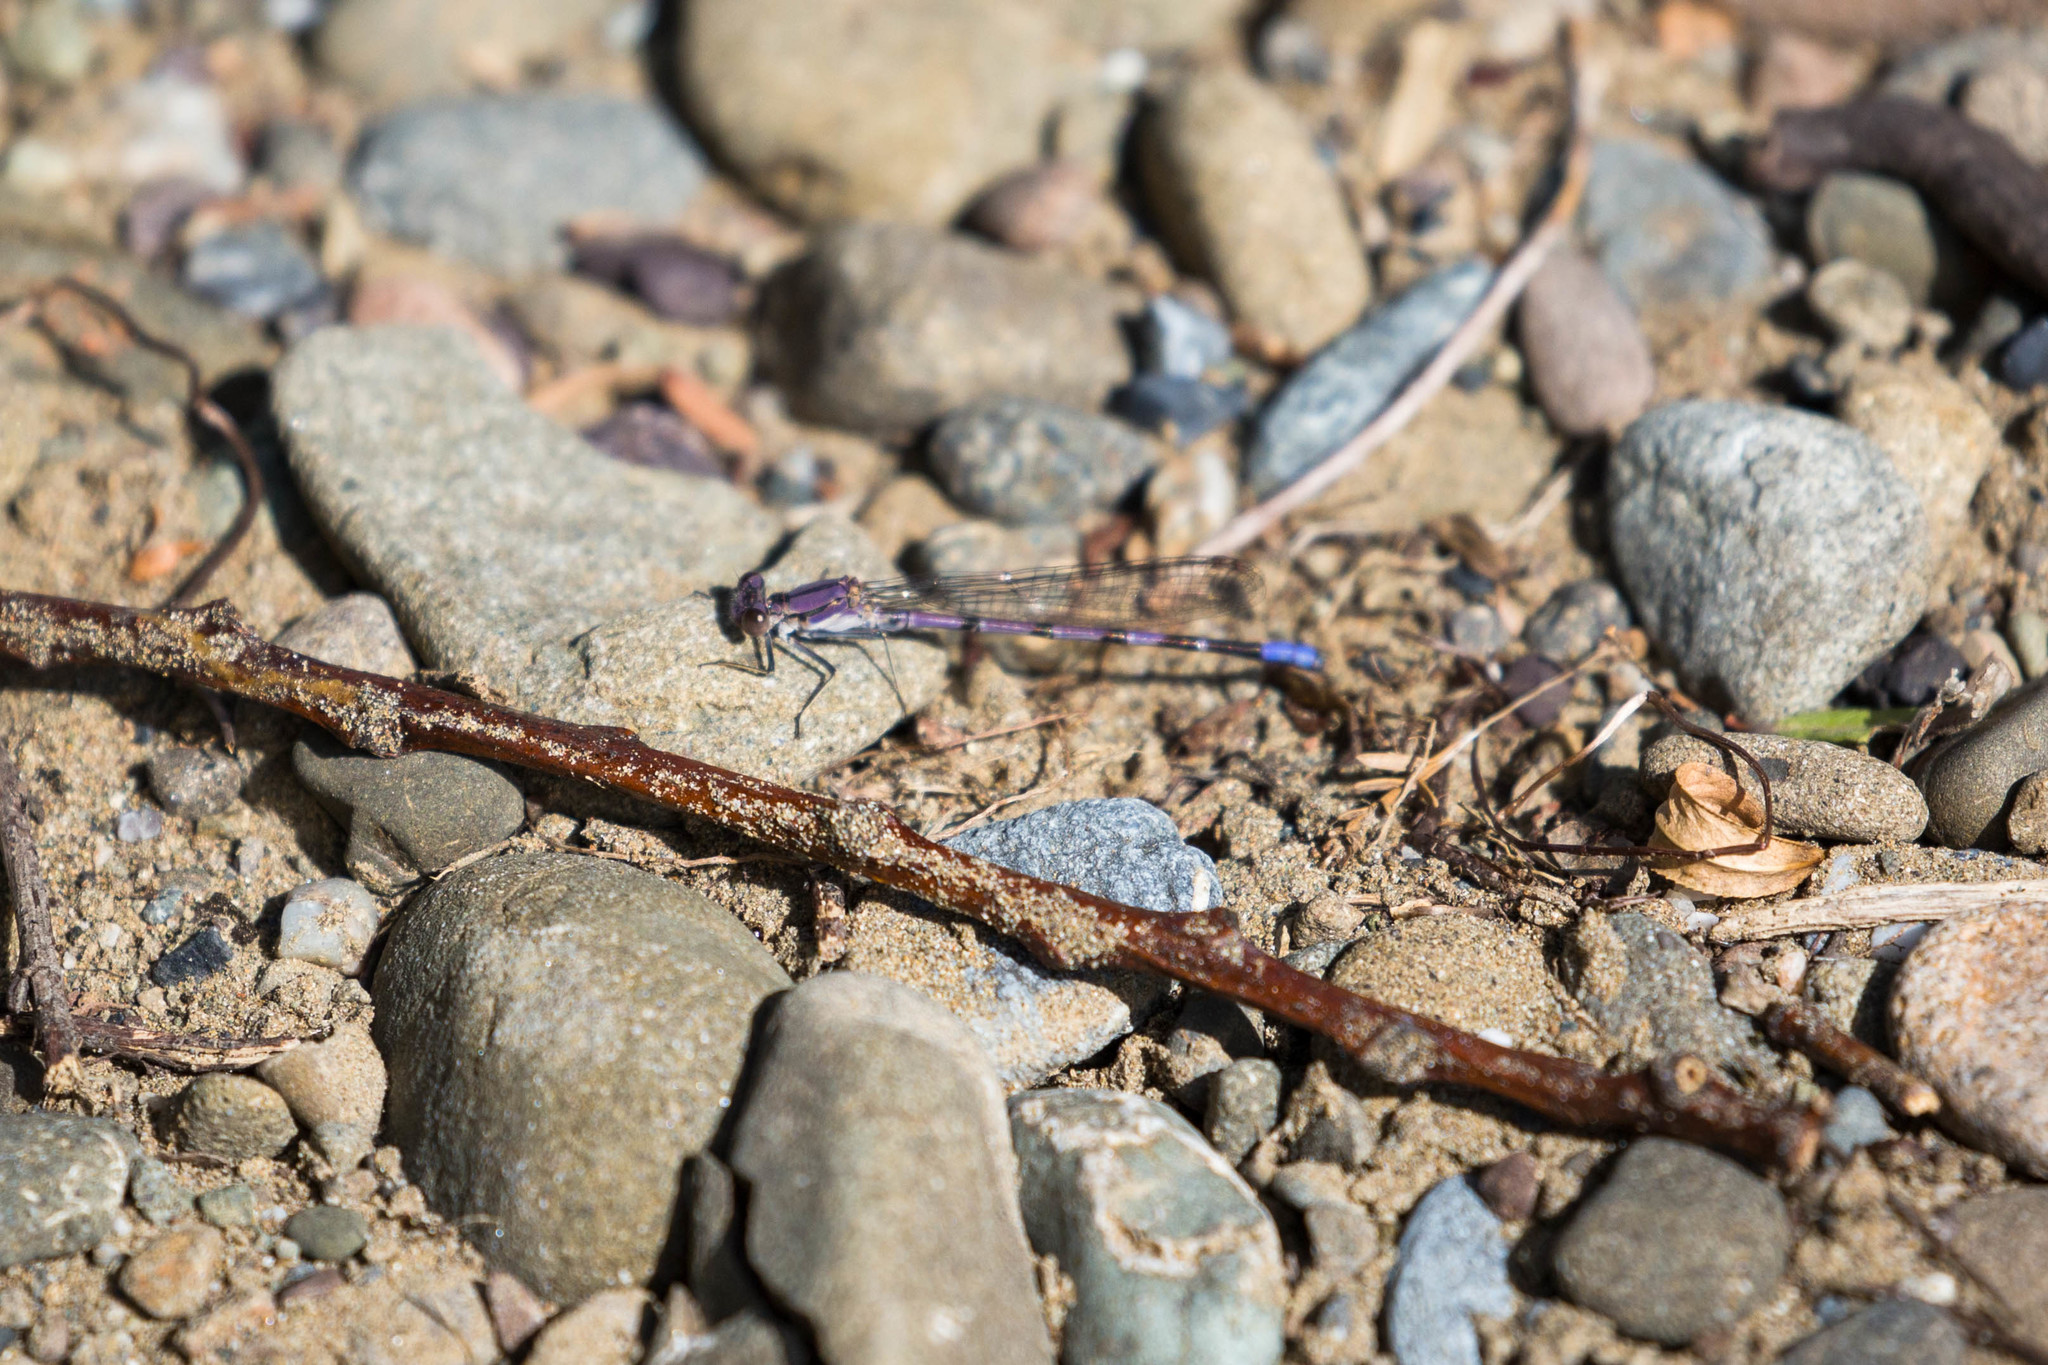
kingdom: Animalia
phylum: Arthropoda
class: Insecta
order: Odonata
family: Coenagrionidae
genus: Argia
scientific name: Argia emma
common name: Emma's dancer
